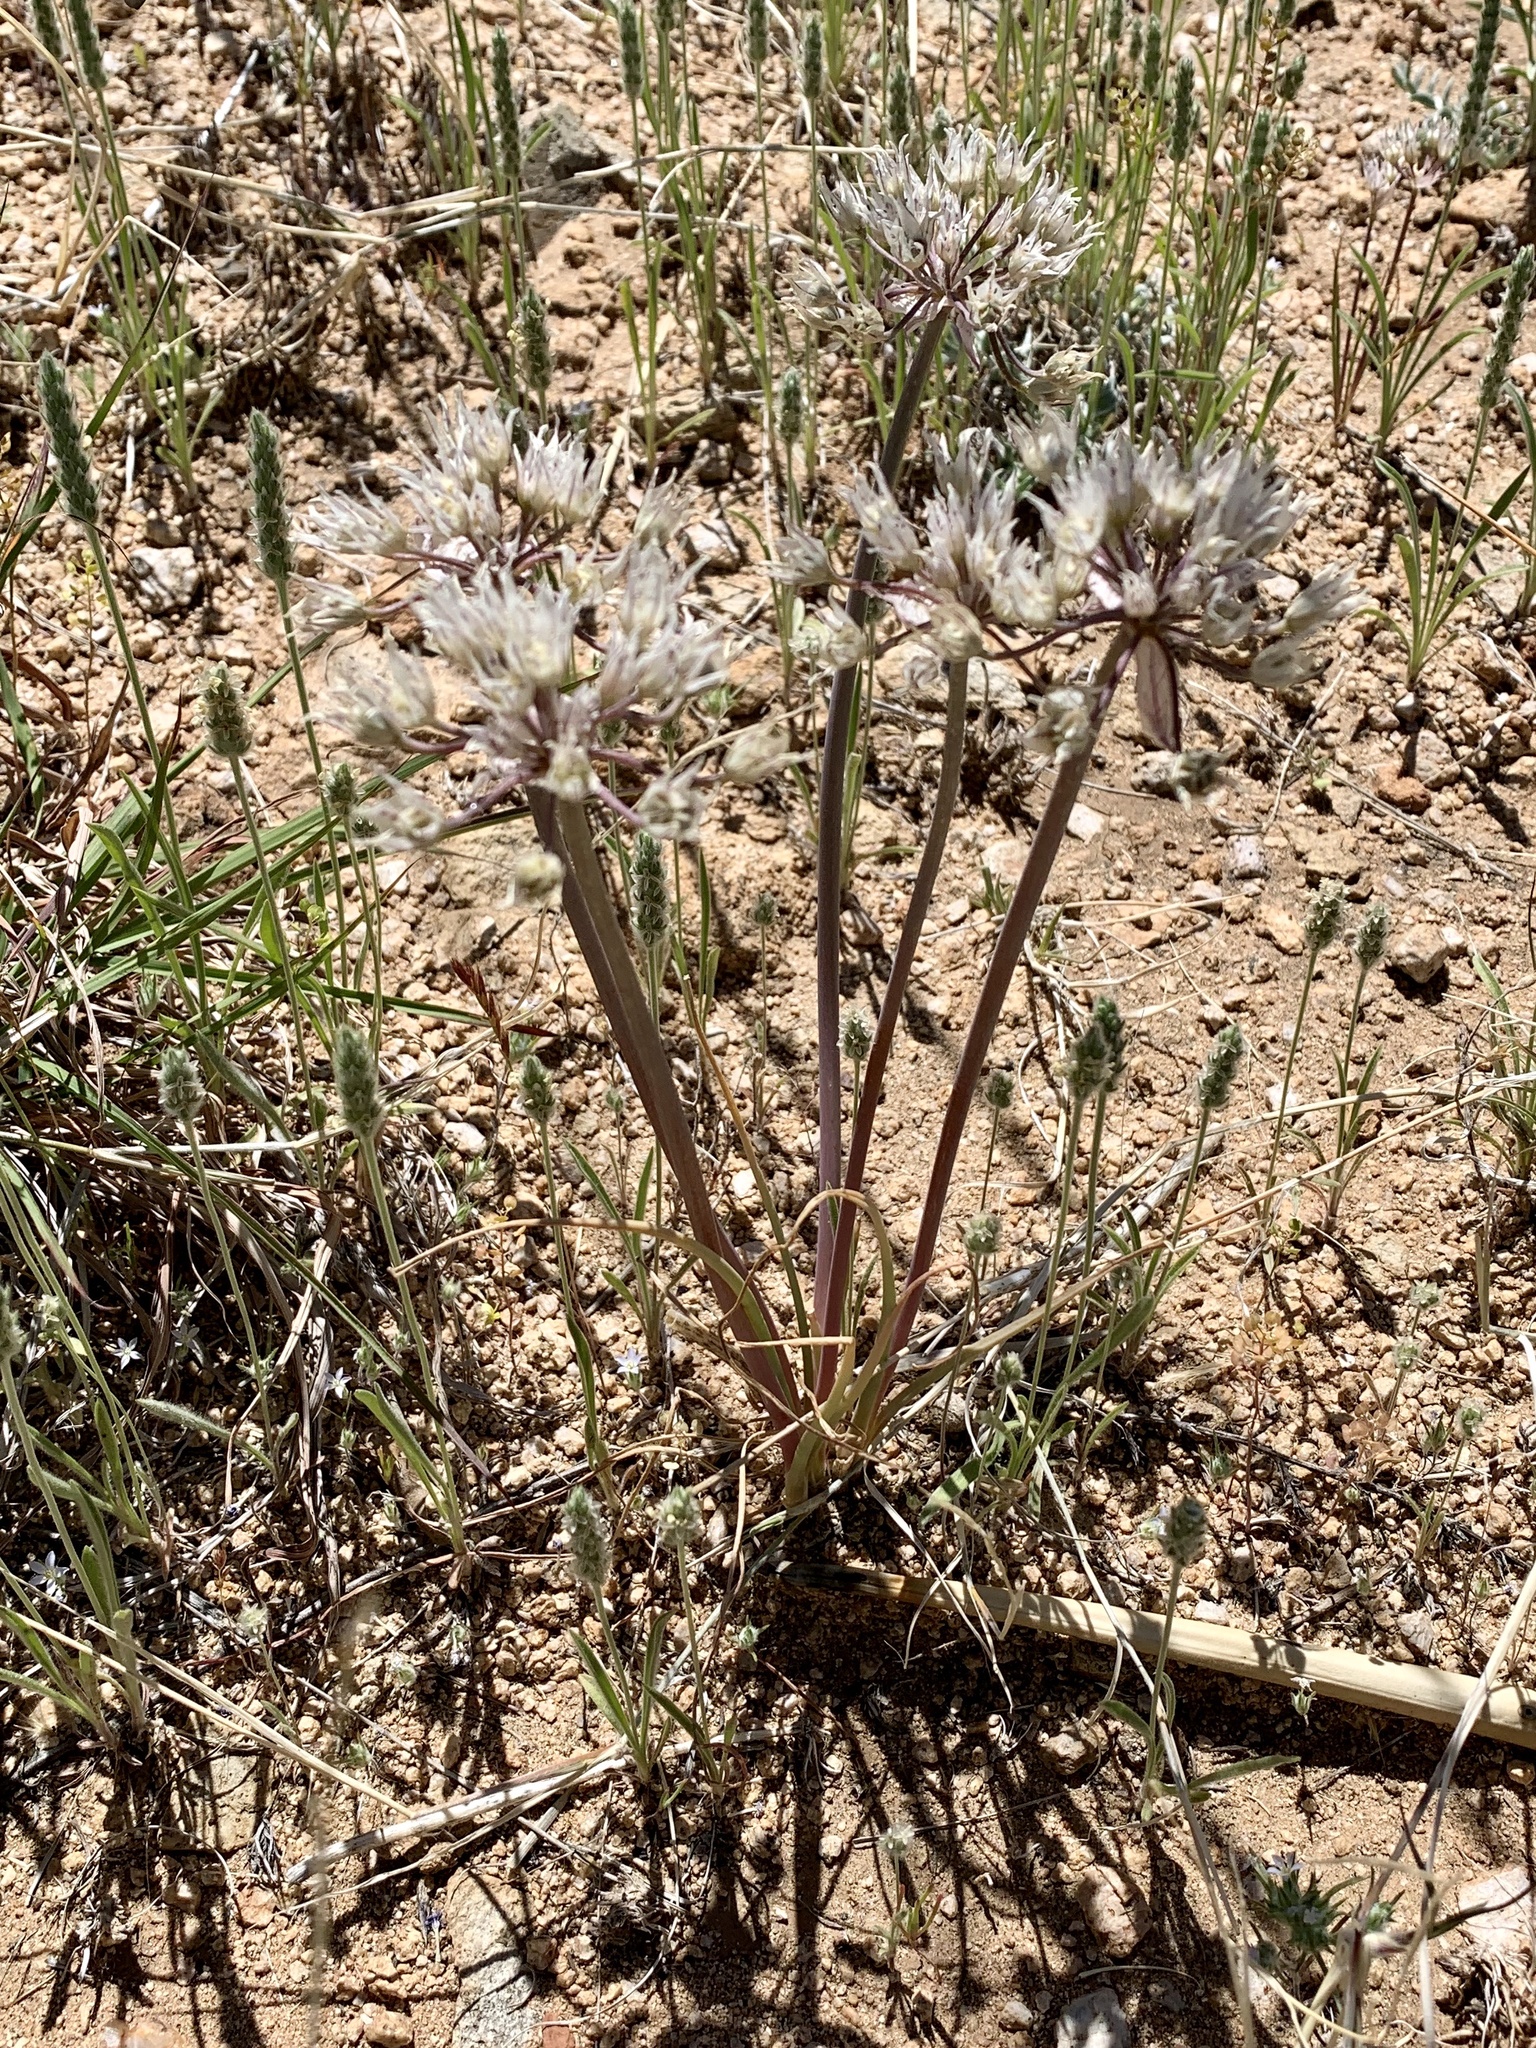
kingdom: Plantae
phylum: Tracheophyta
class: Liliopsida
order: Asparagales
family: Amaryllidaceae
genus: Allium
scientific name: Allium macropetalum
